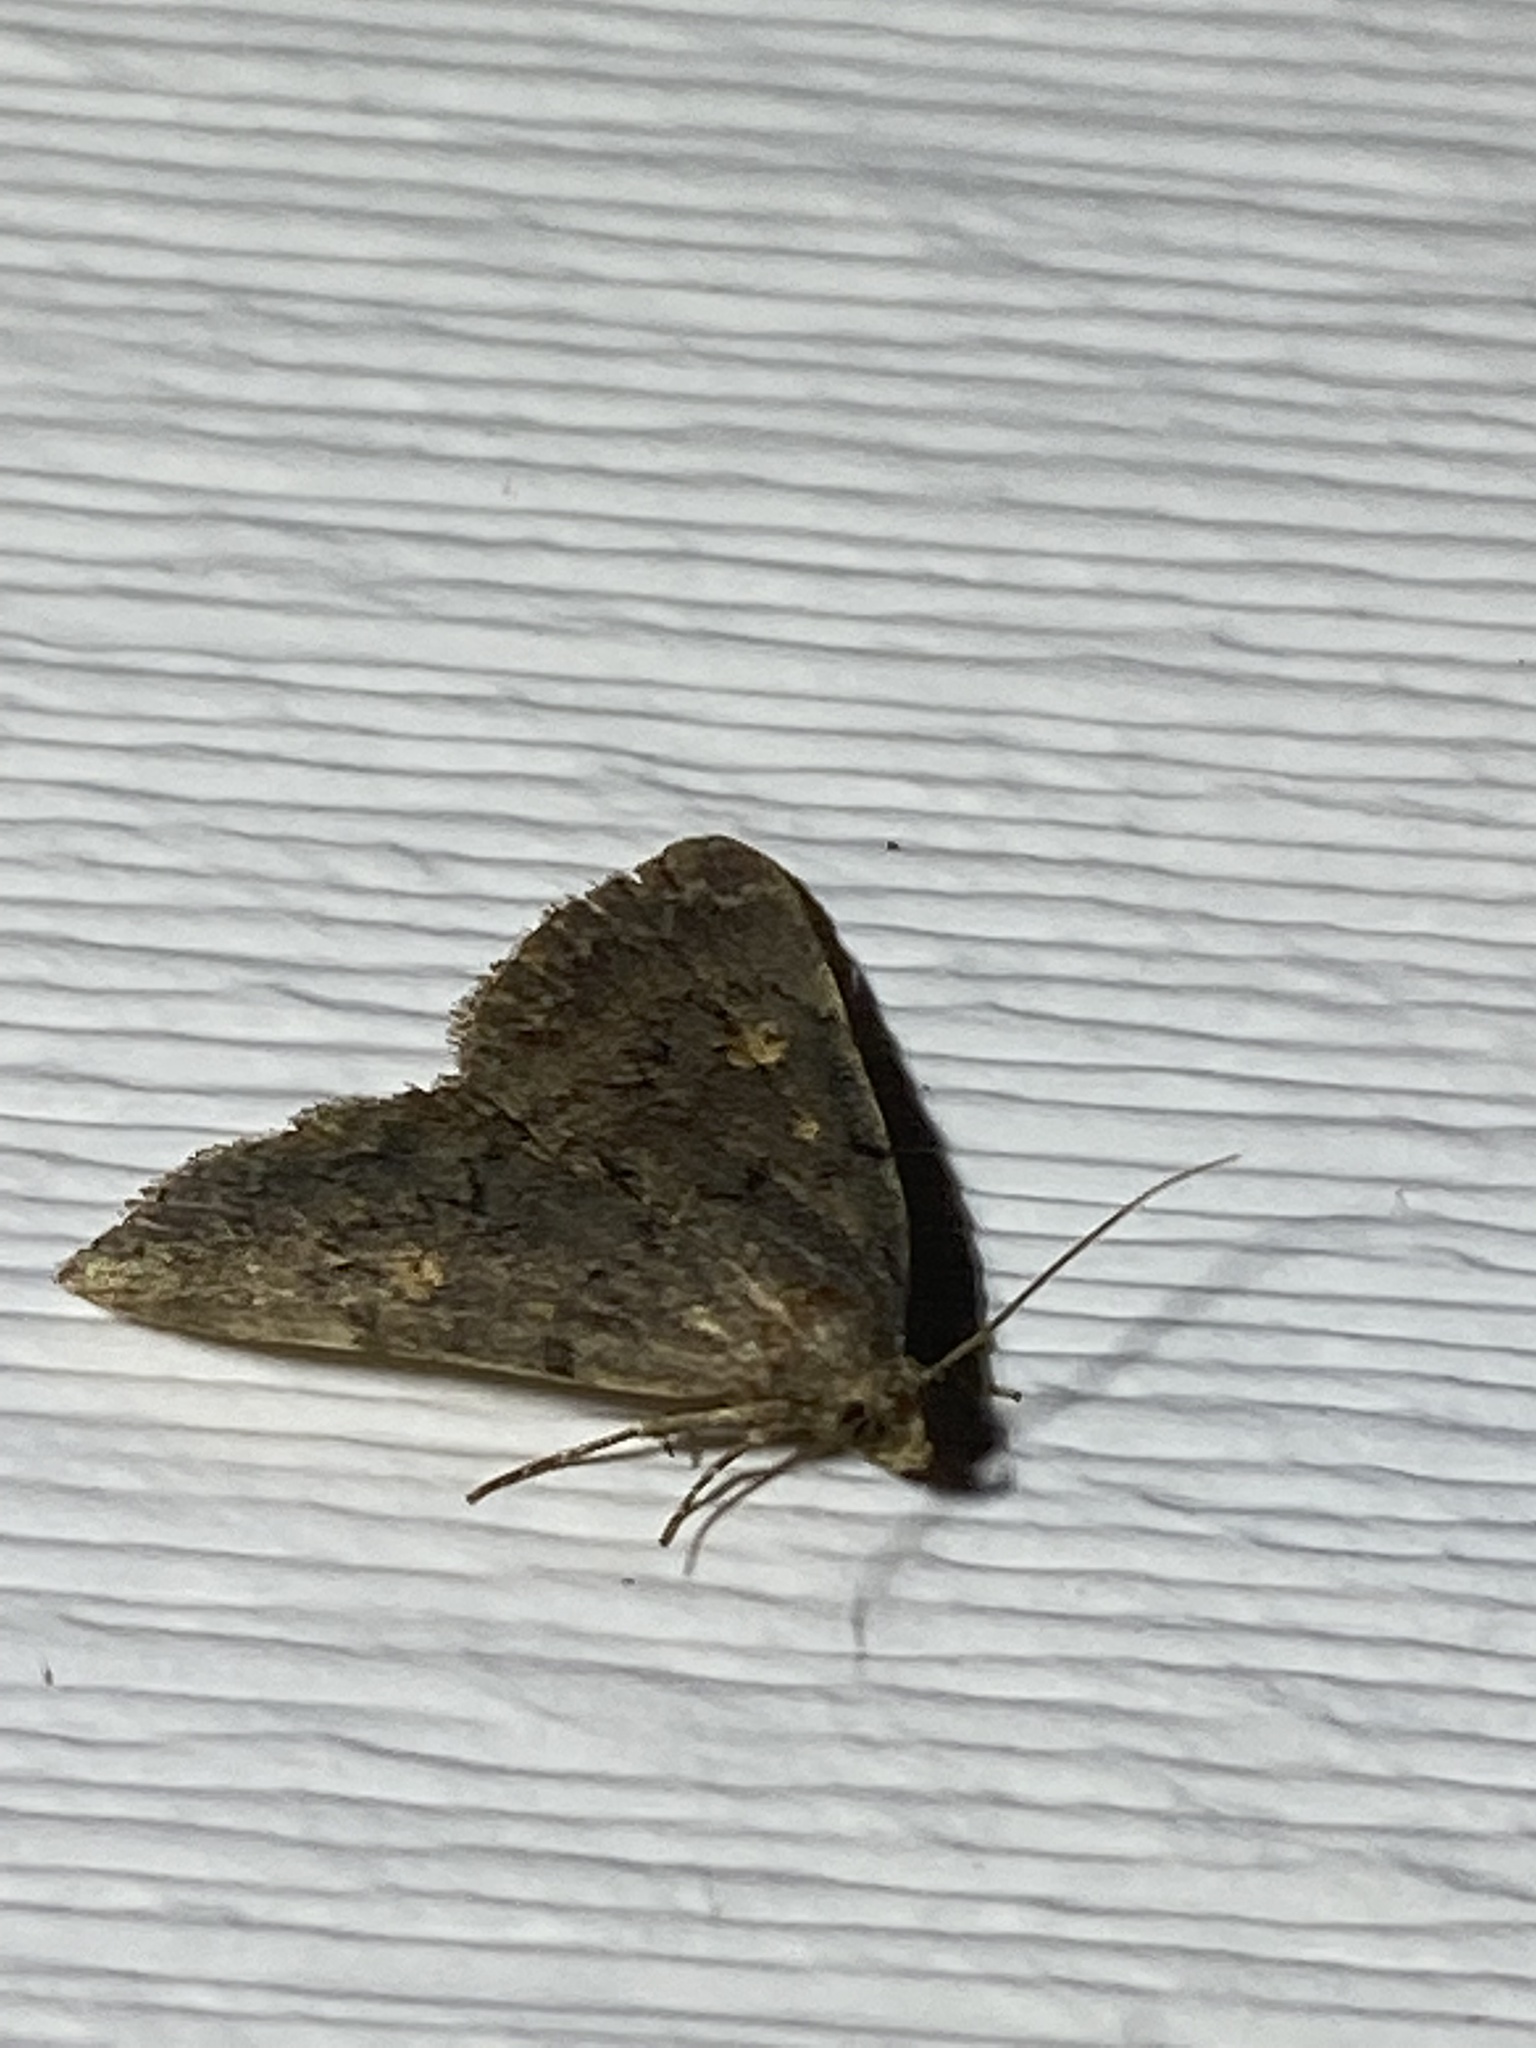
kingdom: Animalia
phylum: Arthropoda
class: Insecta
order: Lepidoptera
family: Erebidae
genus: Idia
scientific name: Idia aemula
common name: Common idia moth
